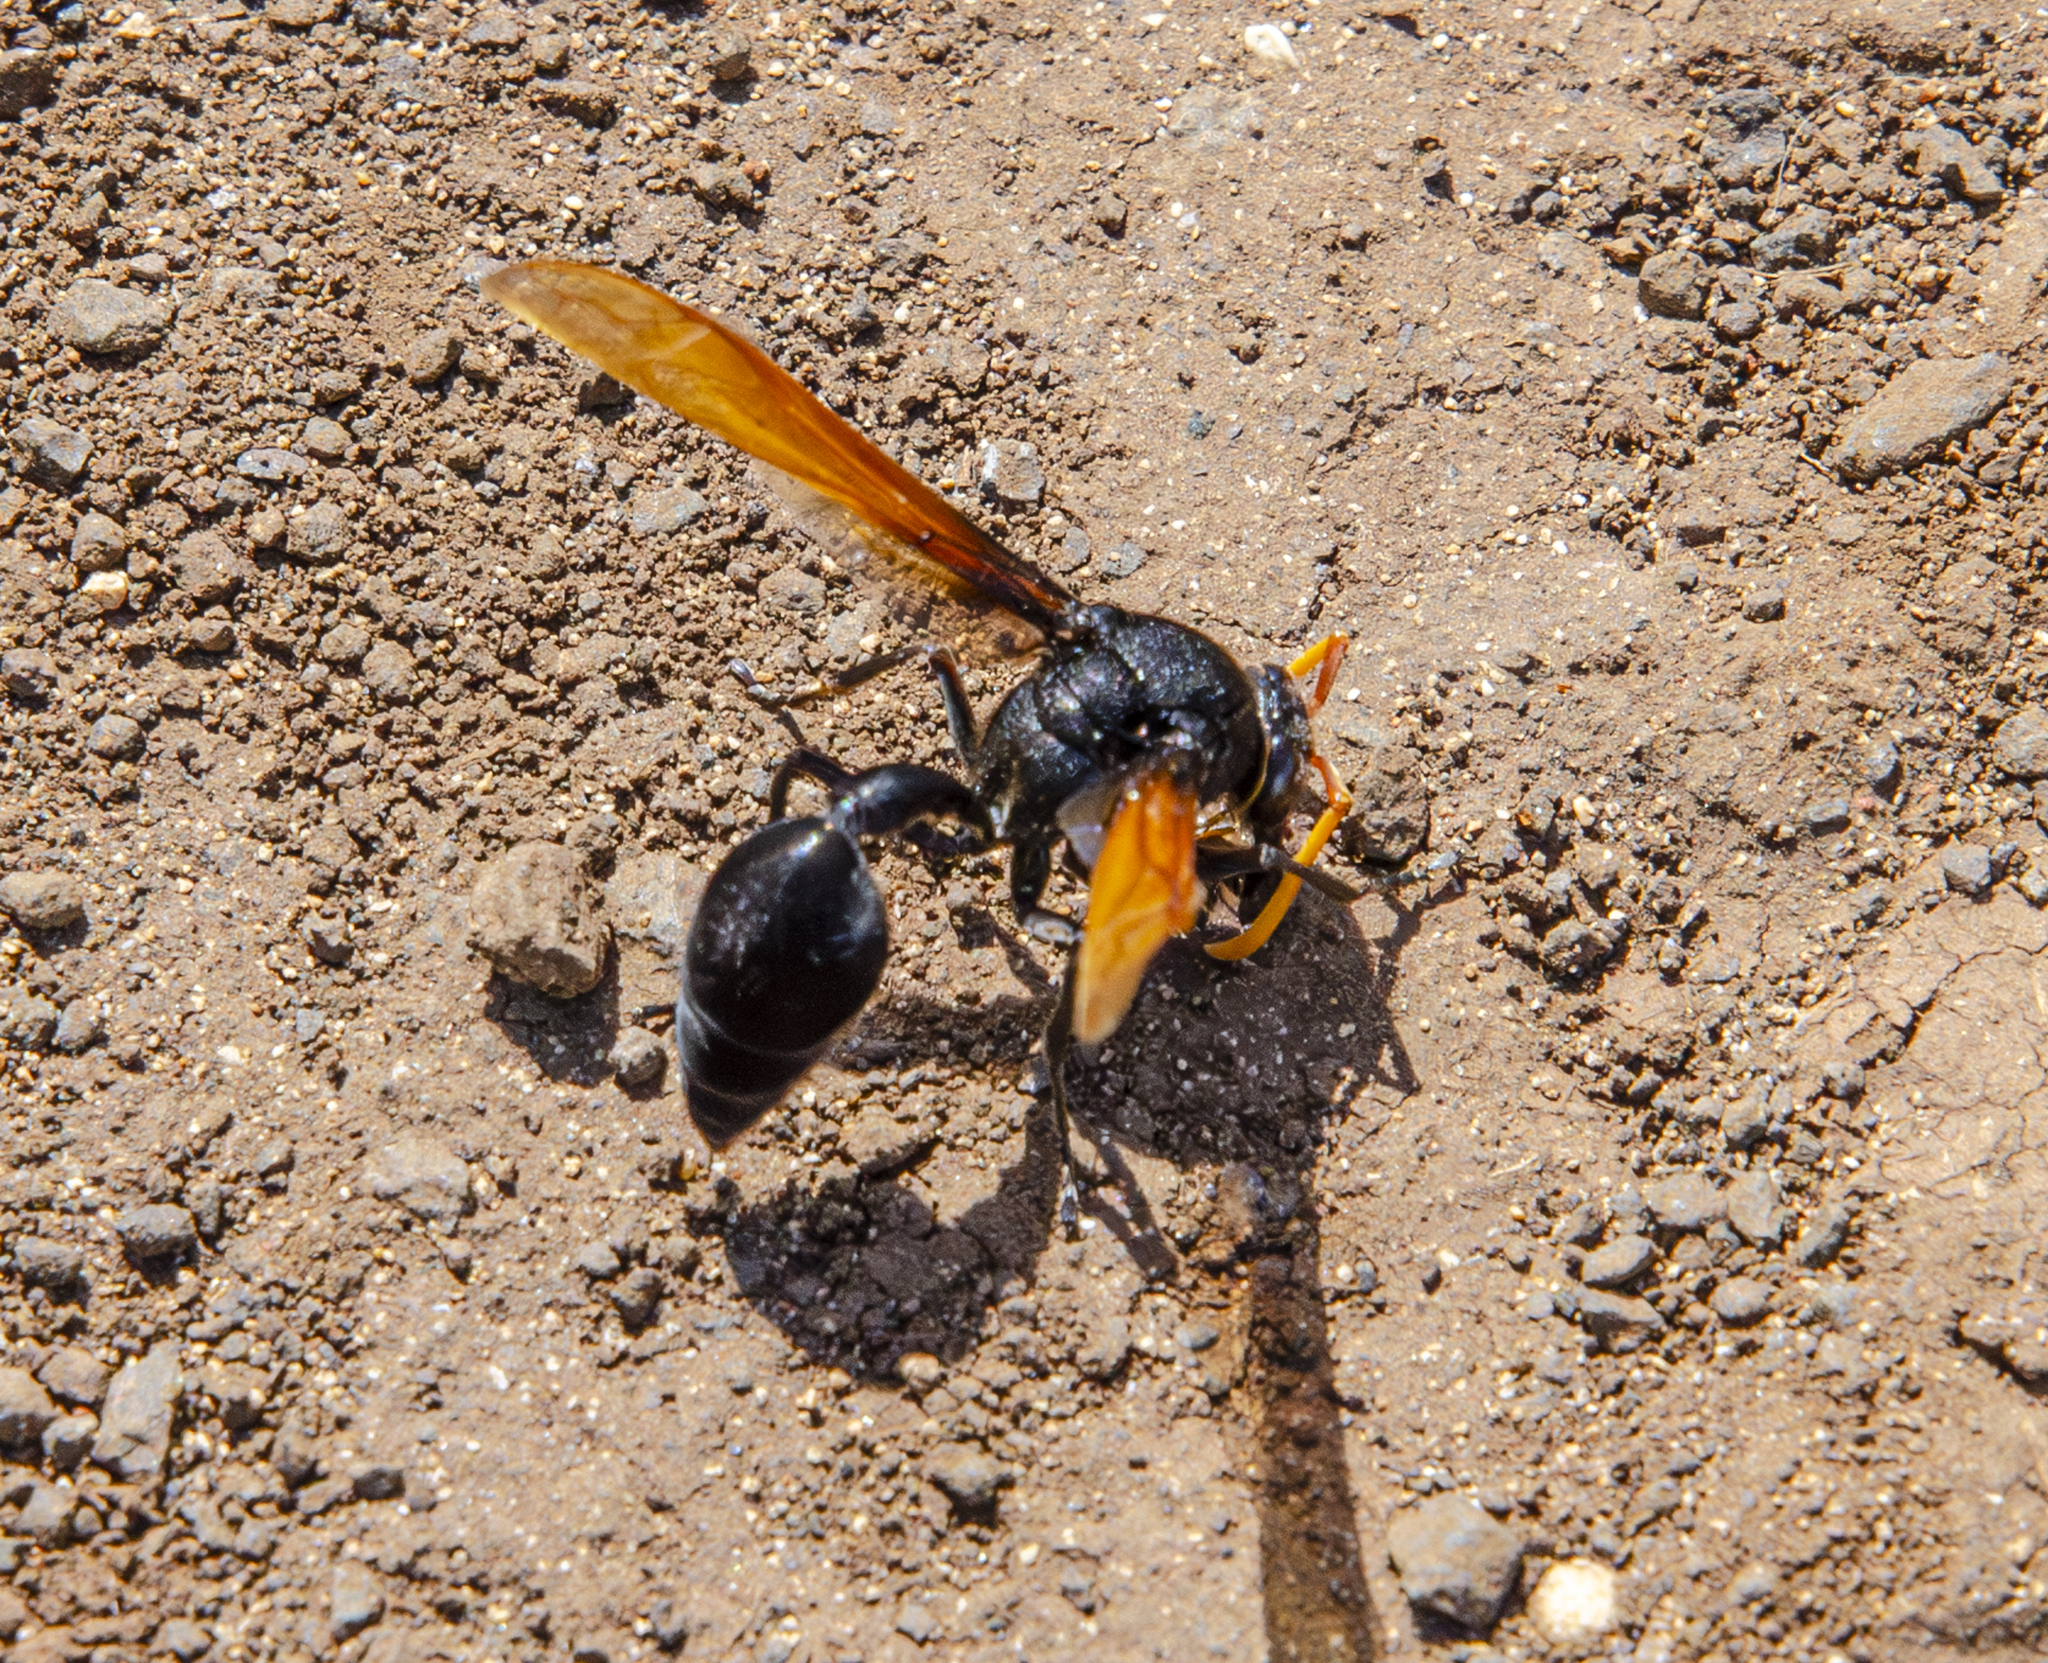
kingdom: Animalia
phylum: Arthropoda
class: Insecta
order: Hymenoptera
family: Eumenidae
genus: Delta
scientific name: Delta pyriforme
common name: Wasp
